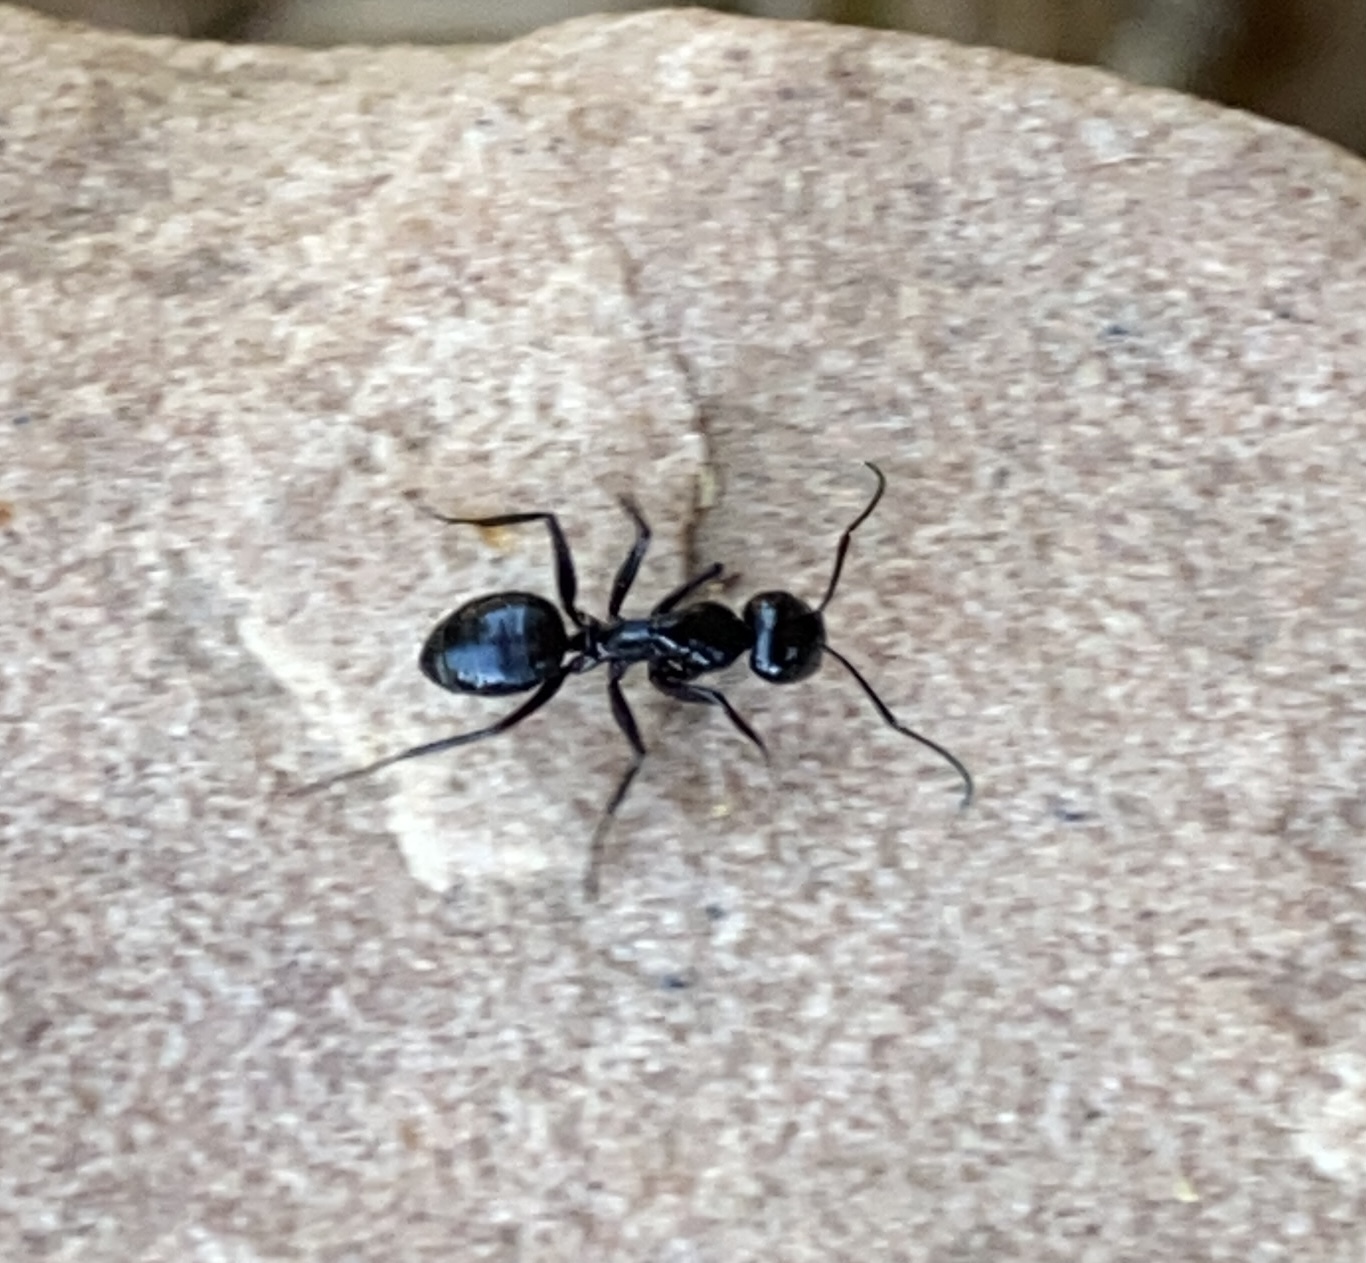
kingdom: Animalia
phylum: Arthropoda
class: Insecta
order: Hymenoptera
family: Formicidae
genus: Camponotus
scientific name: Camponotus
